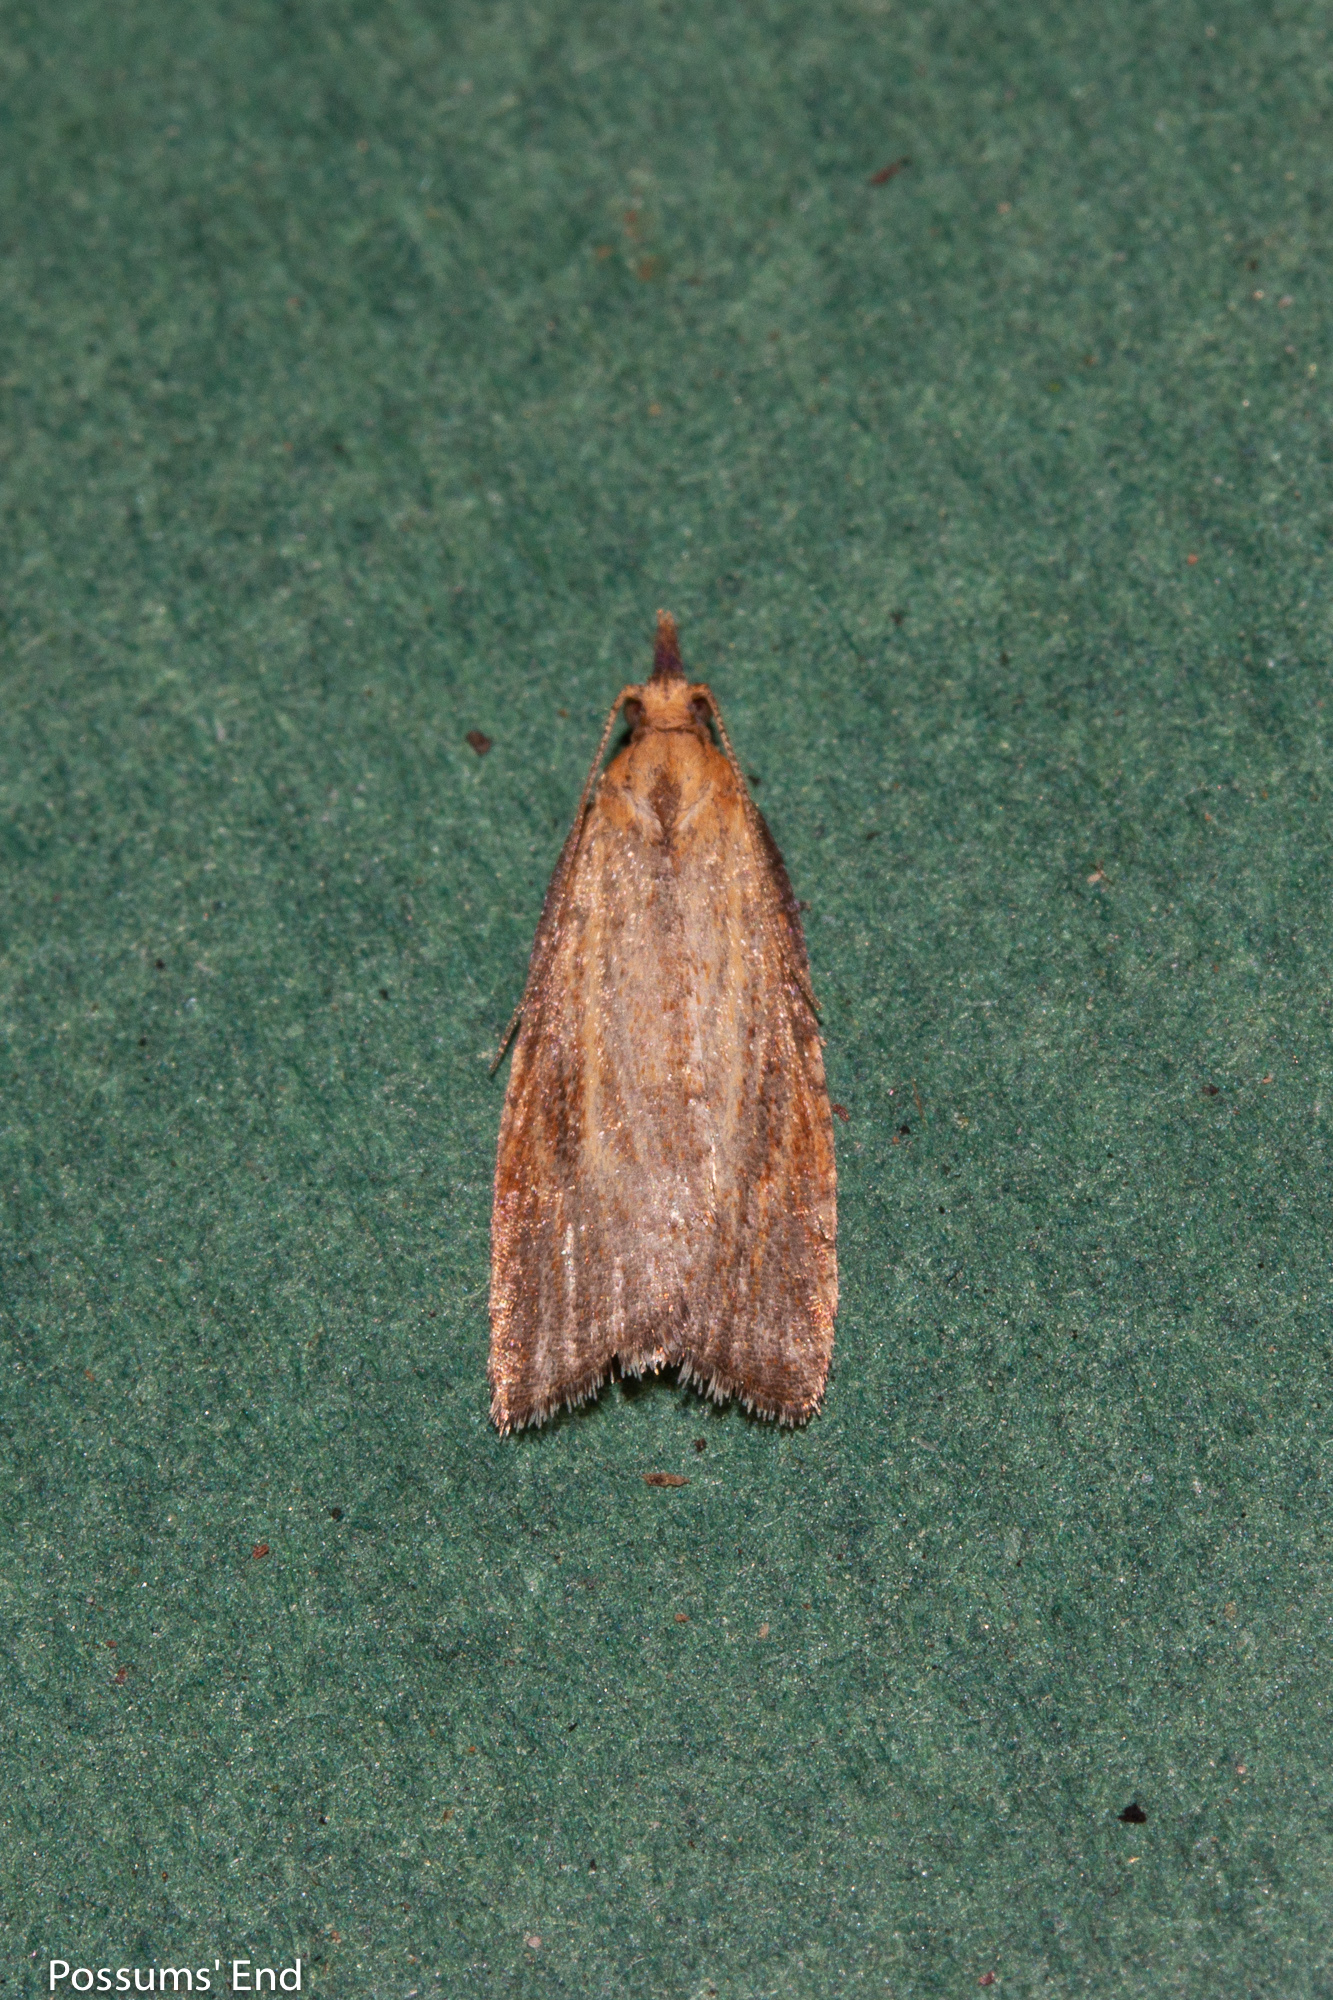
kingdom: Animalia
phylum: Arthropoda
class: Insecta
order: Lepidoptera
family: Tortricidae
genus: Catamacta
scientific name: Catamacta lotinana
